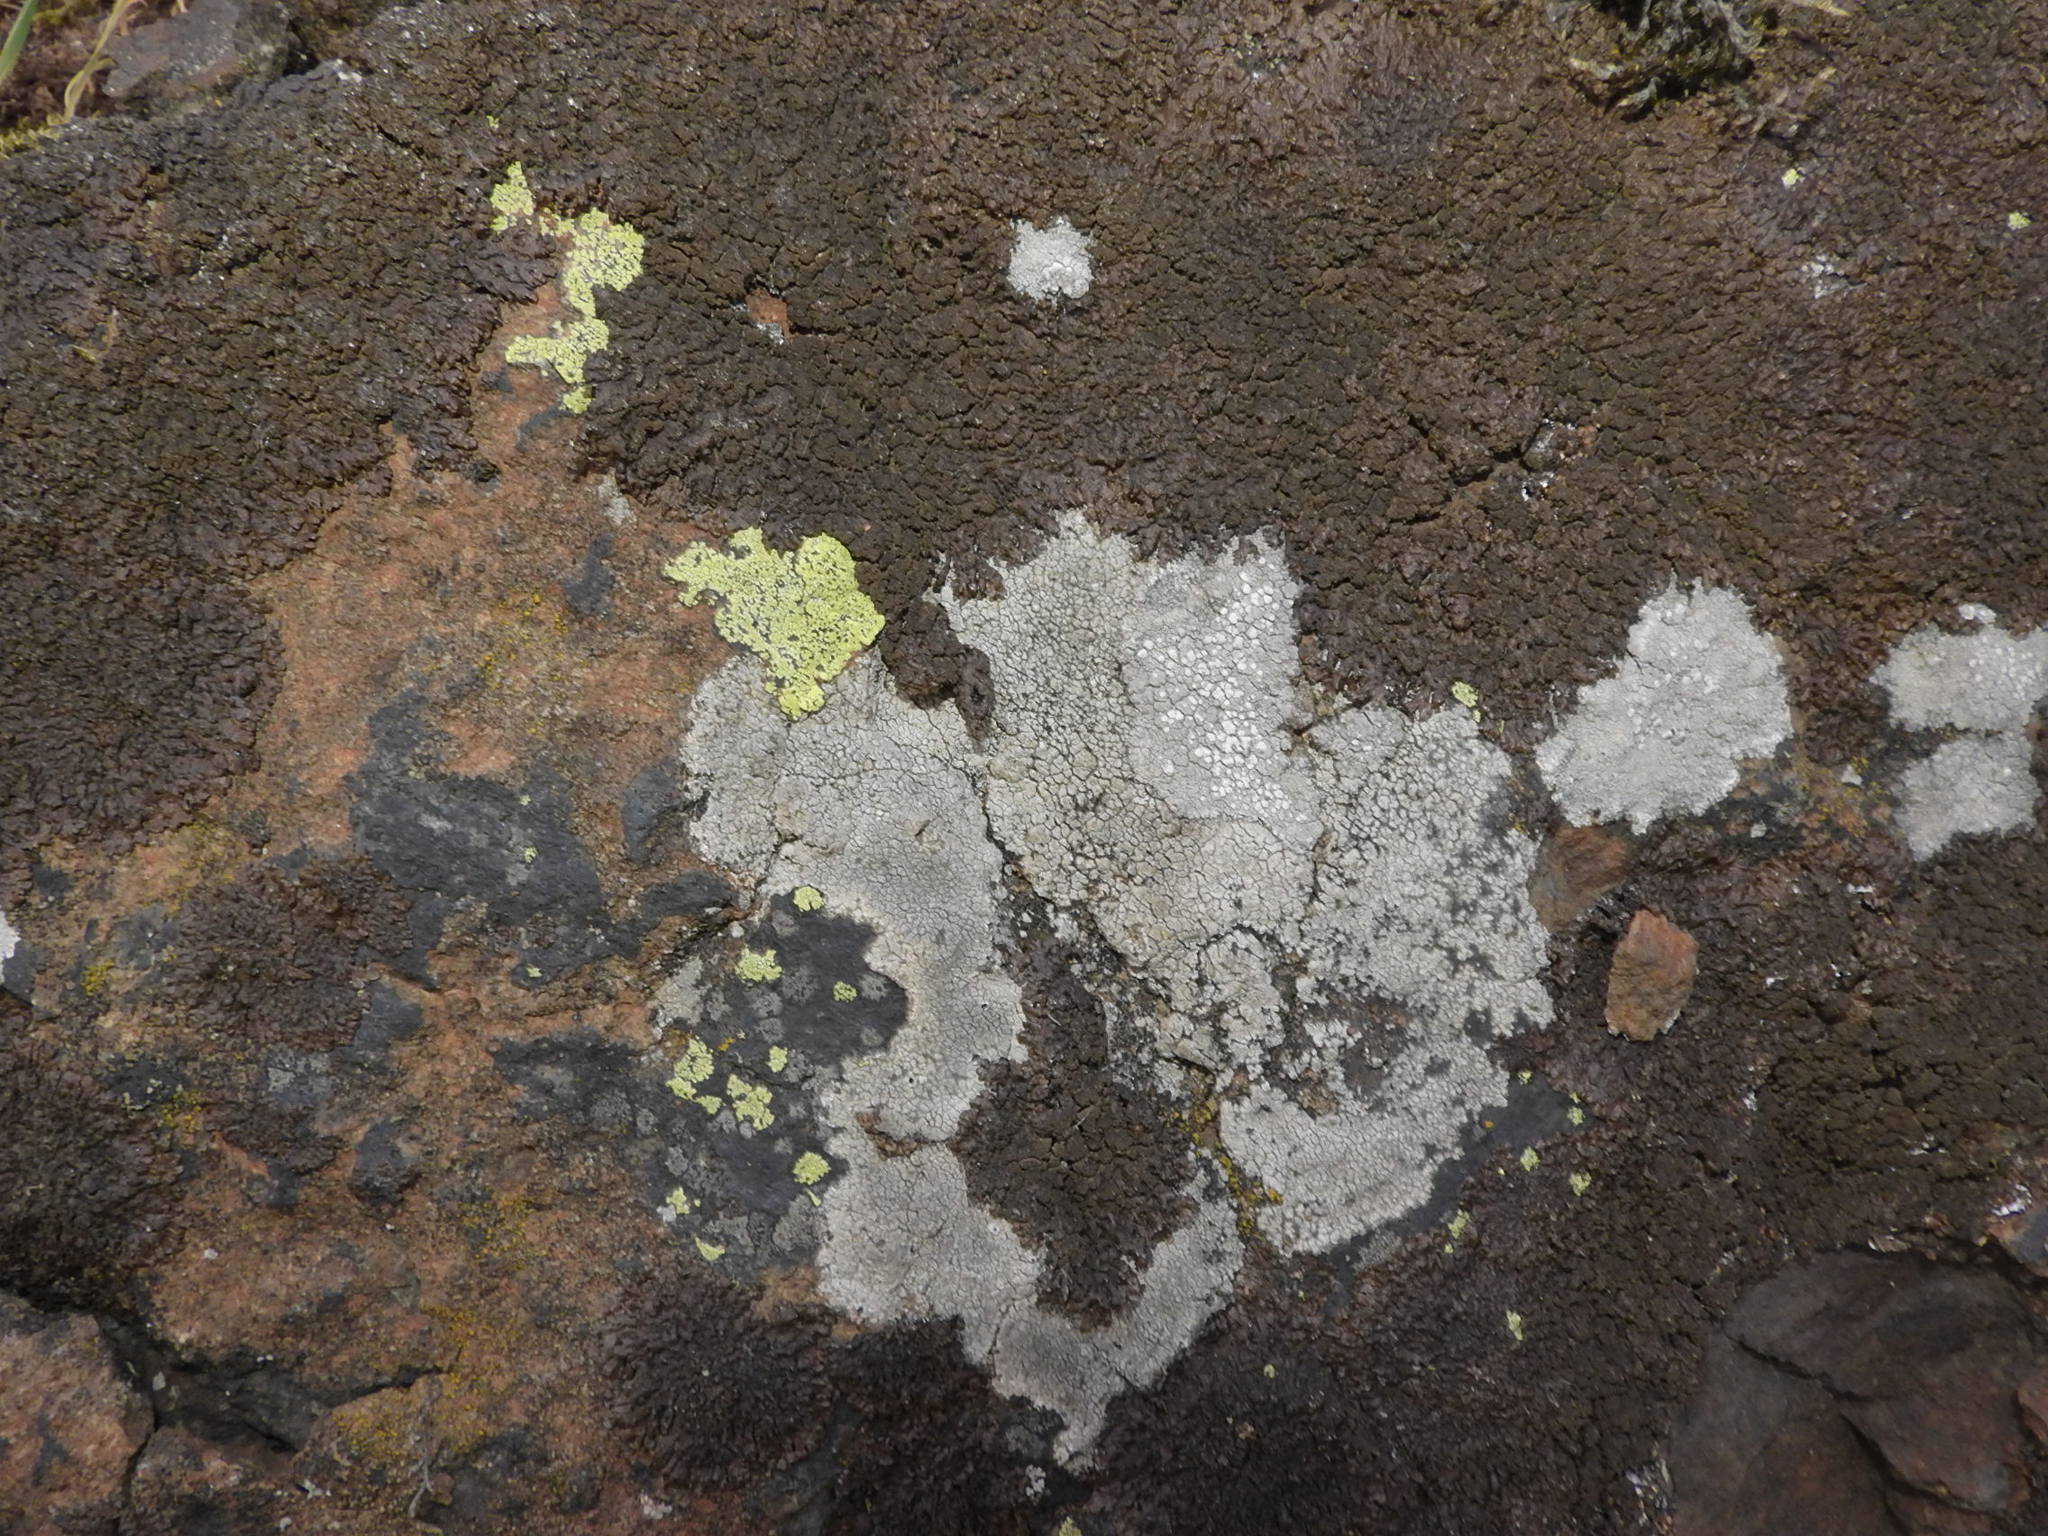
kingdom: Fungi
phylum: Ascomycota
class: Lecanoromycetes
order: Rhizocarpales
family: Rhizocarpaceae
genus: Rhizocarpon
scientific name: Rhizocarpon geographicum
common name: Yellow map lichen
